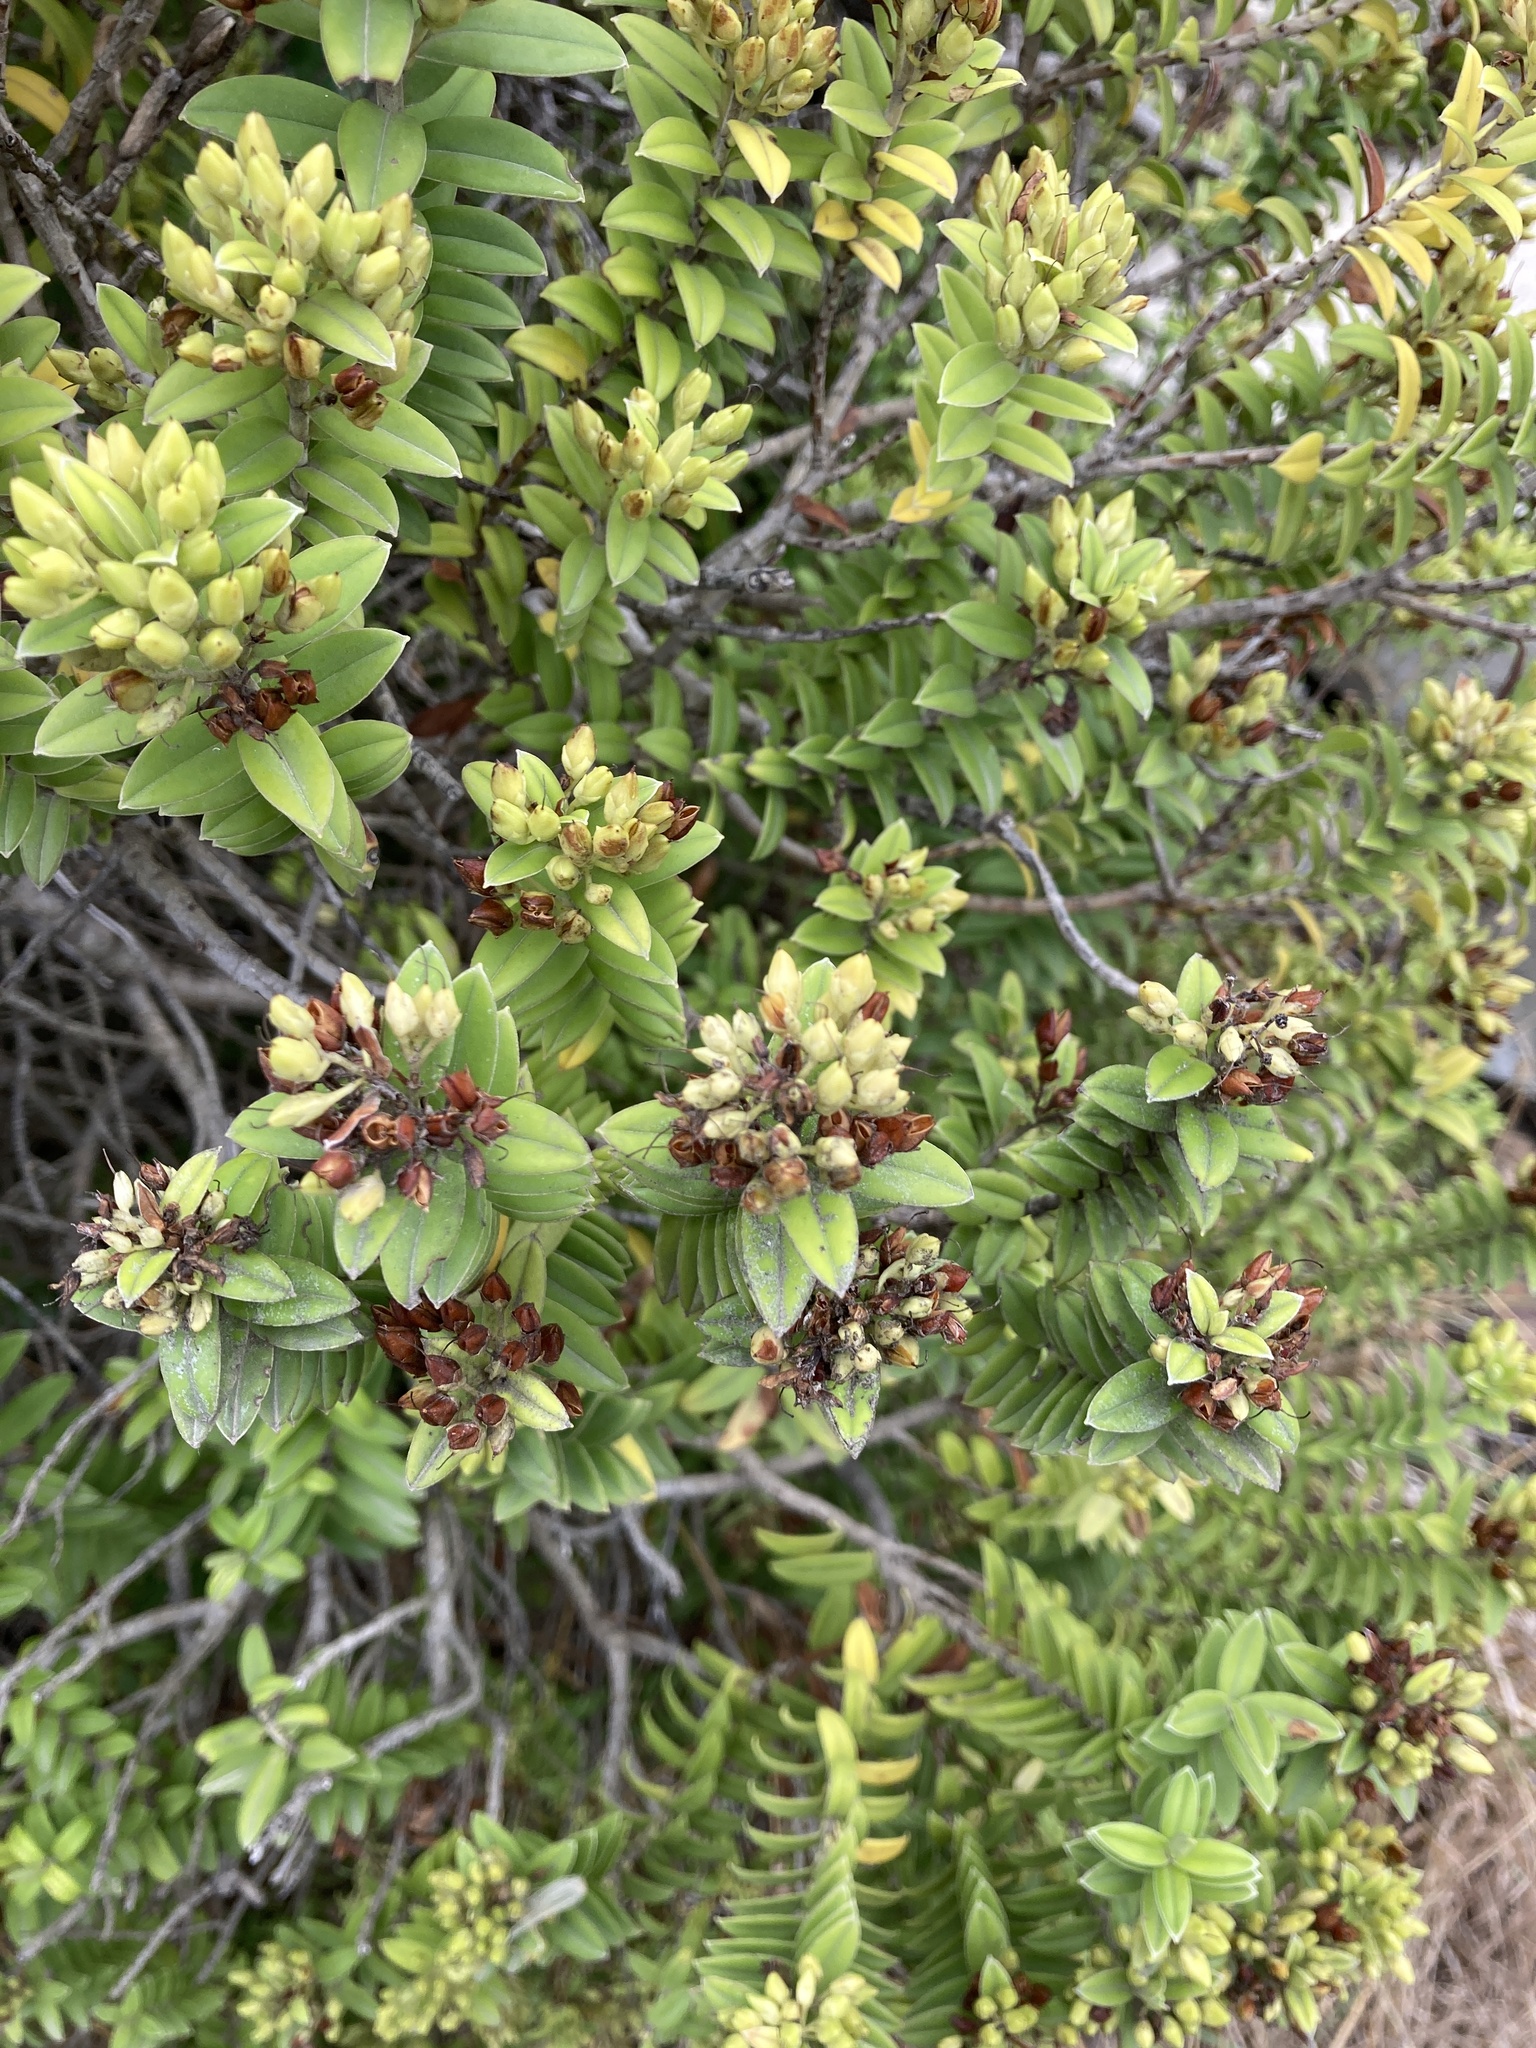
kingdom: Plantae
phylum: Tracheophyta
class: Magnoliopsida
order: Lamiales
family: Plantaginaceae
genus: Veronica
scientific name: Veronica elliptica
